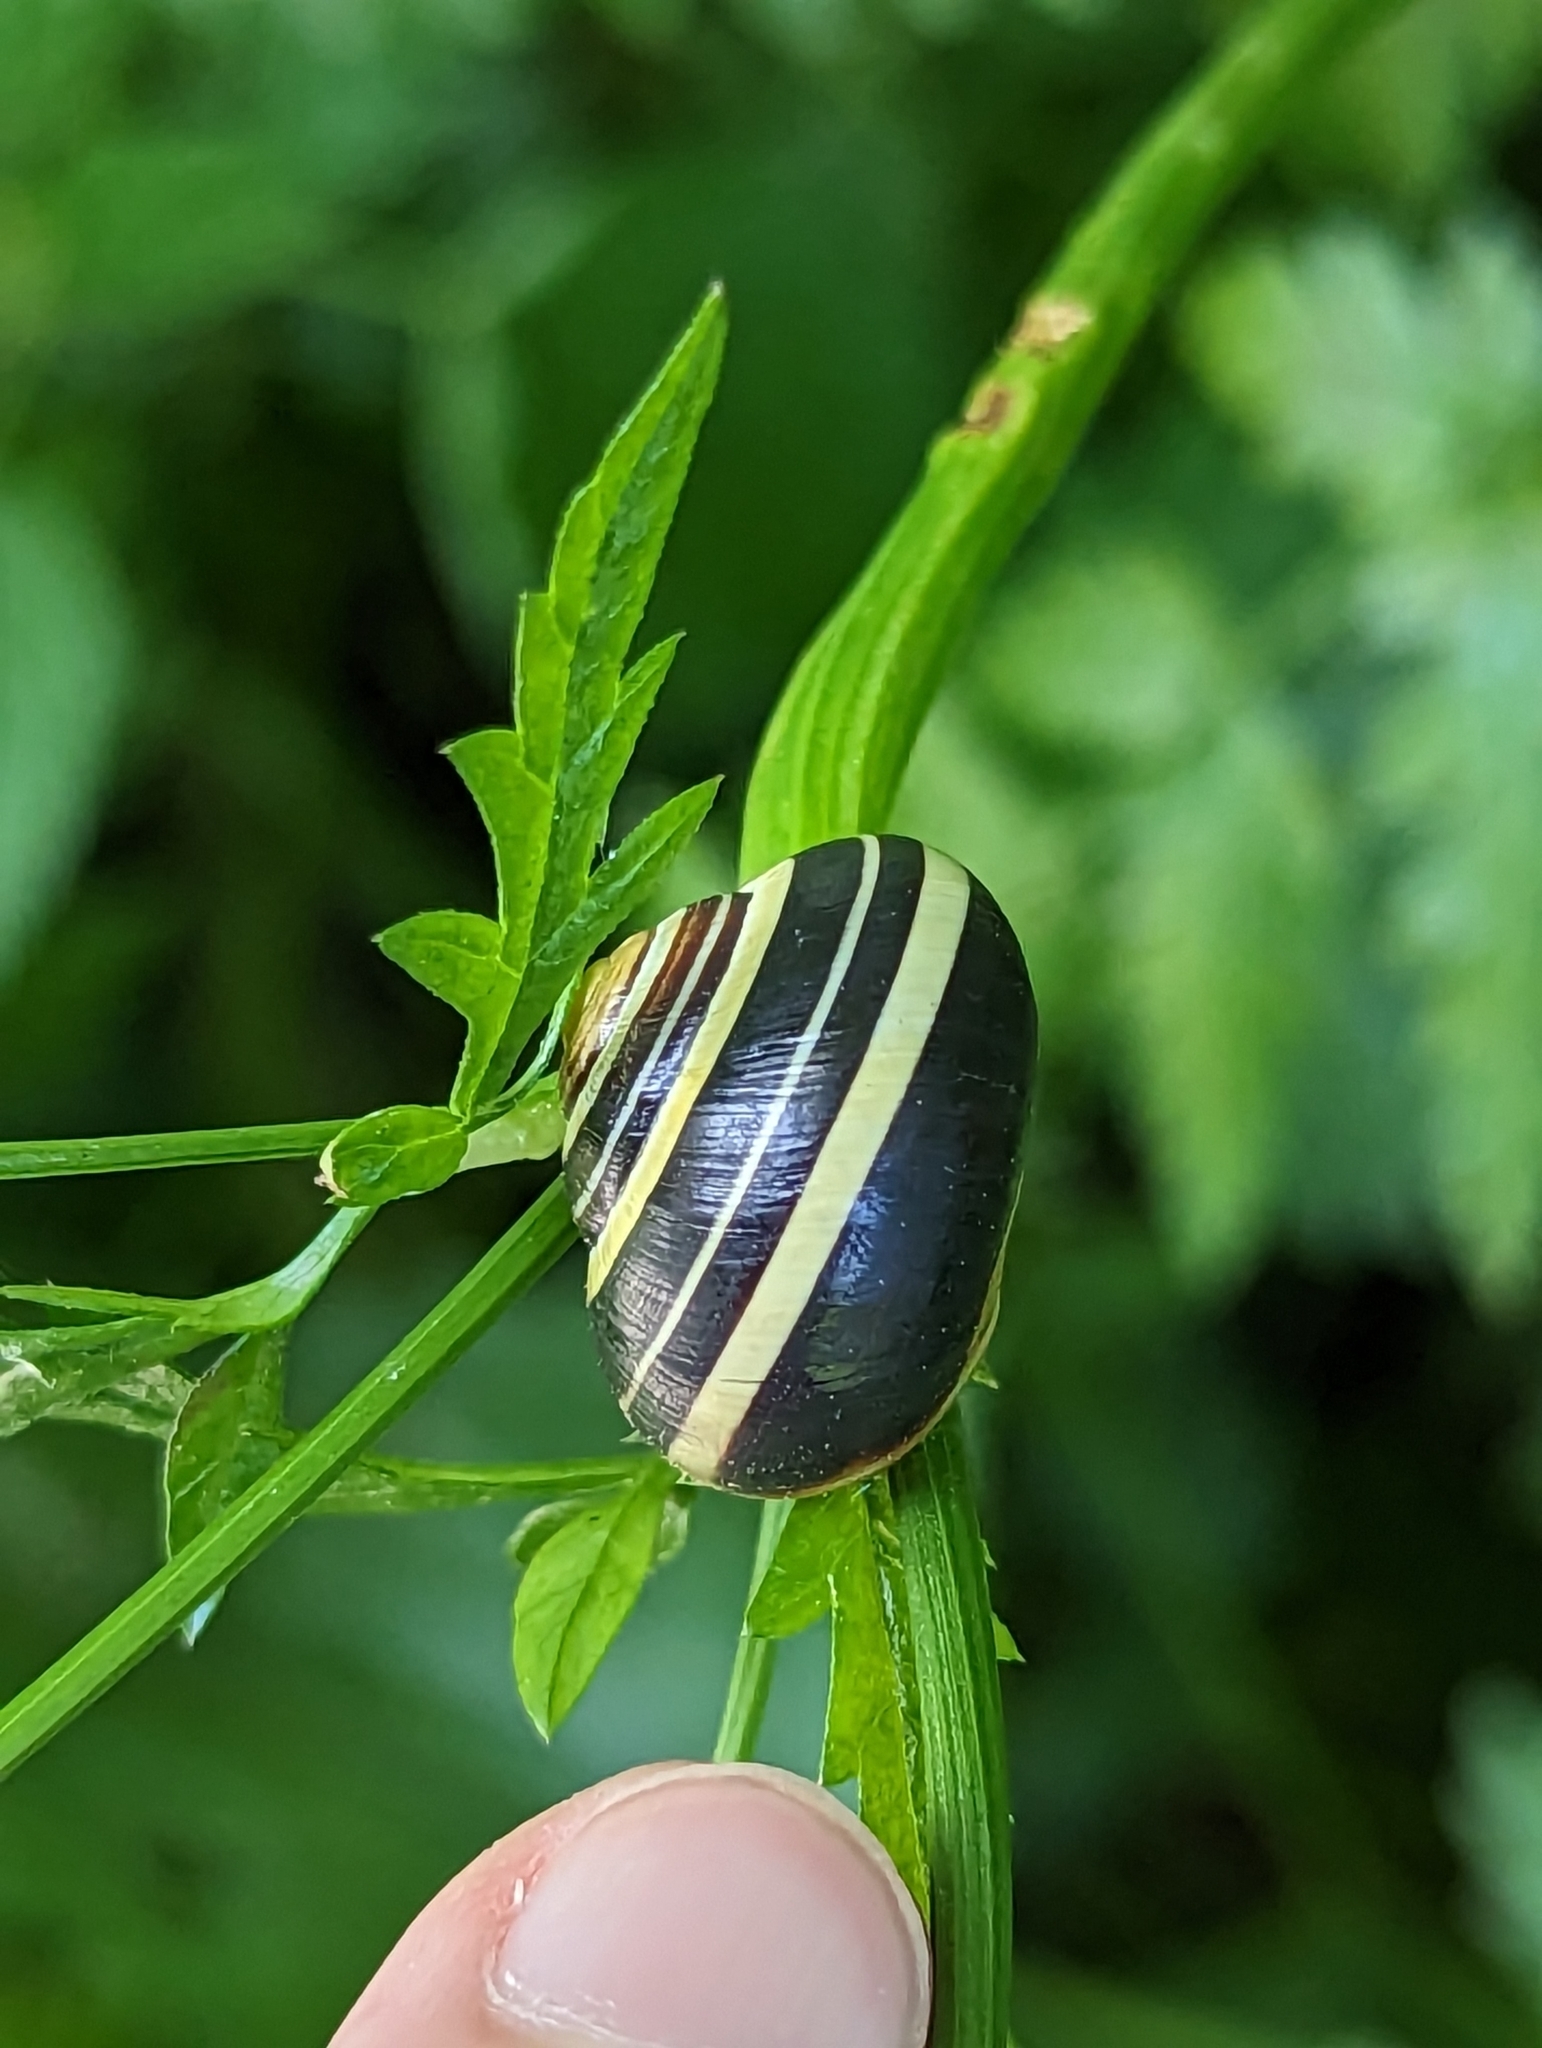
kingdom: Animalia
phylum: Mollusca
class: Gastropoda
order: Stylommatophora
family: Helicidae
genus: Cepaea
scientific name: Cepaea nemoralis
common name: Grovesnail
